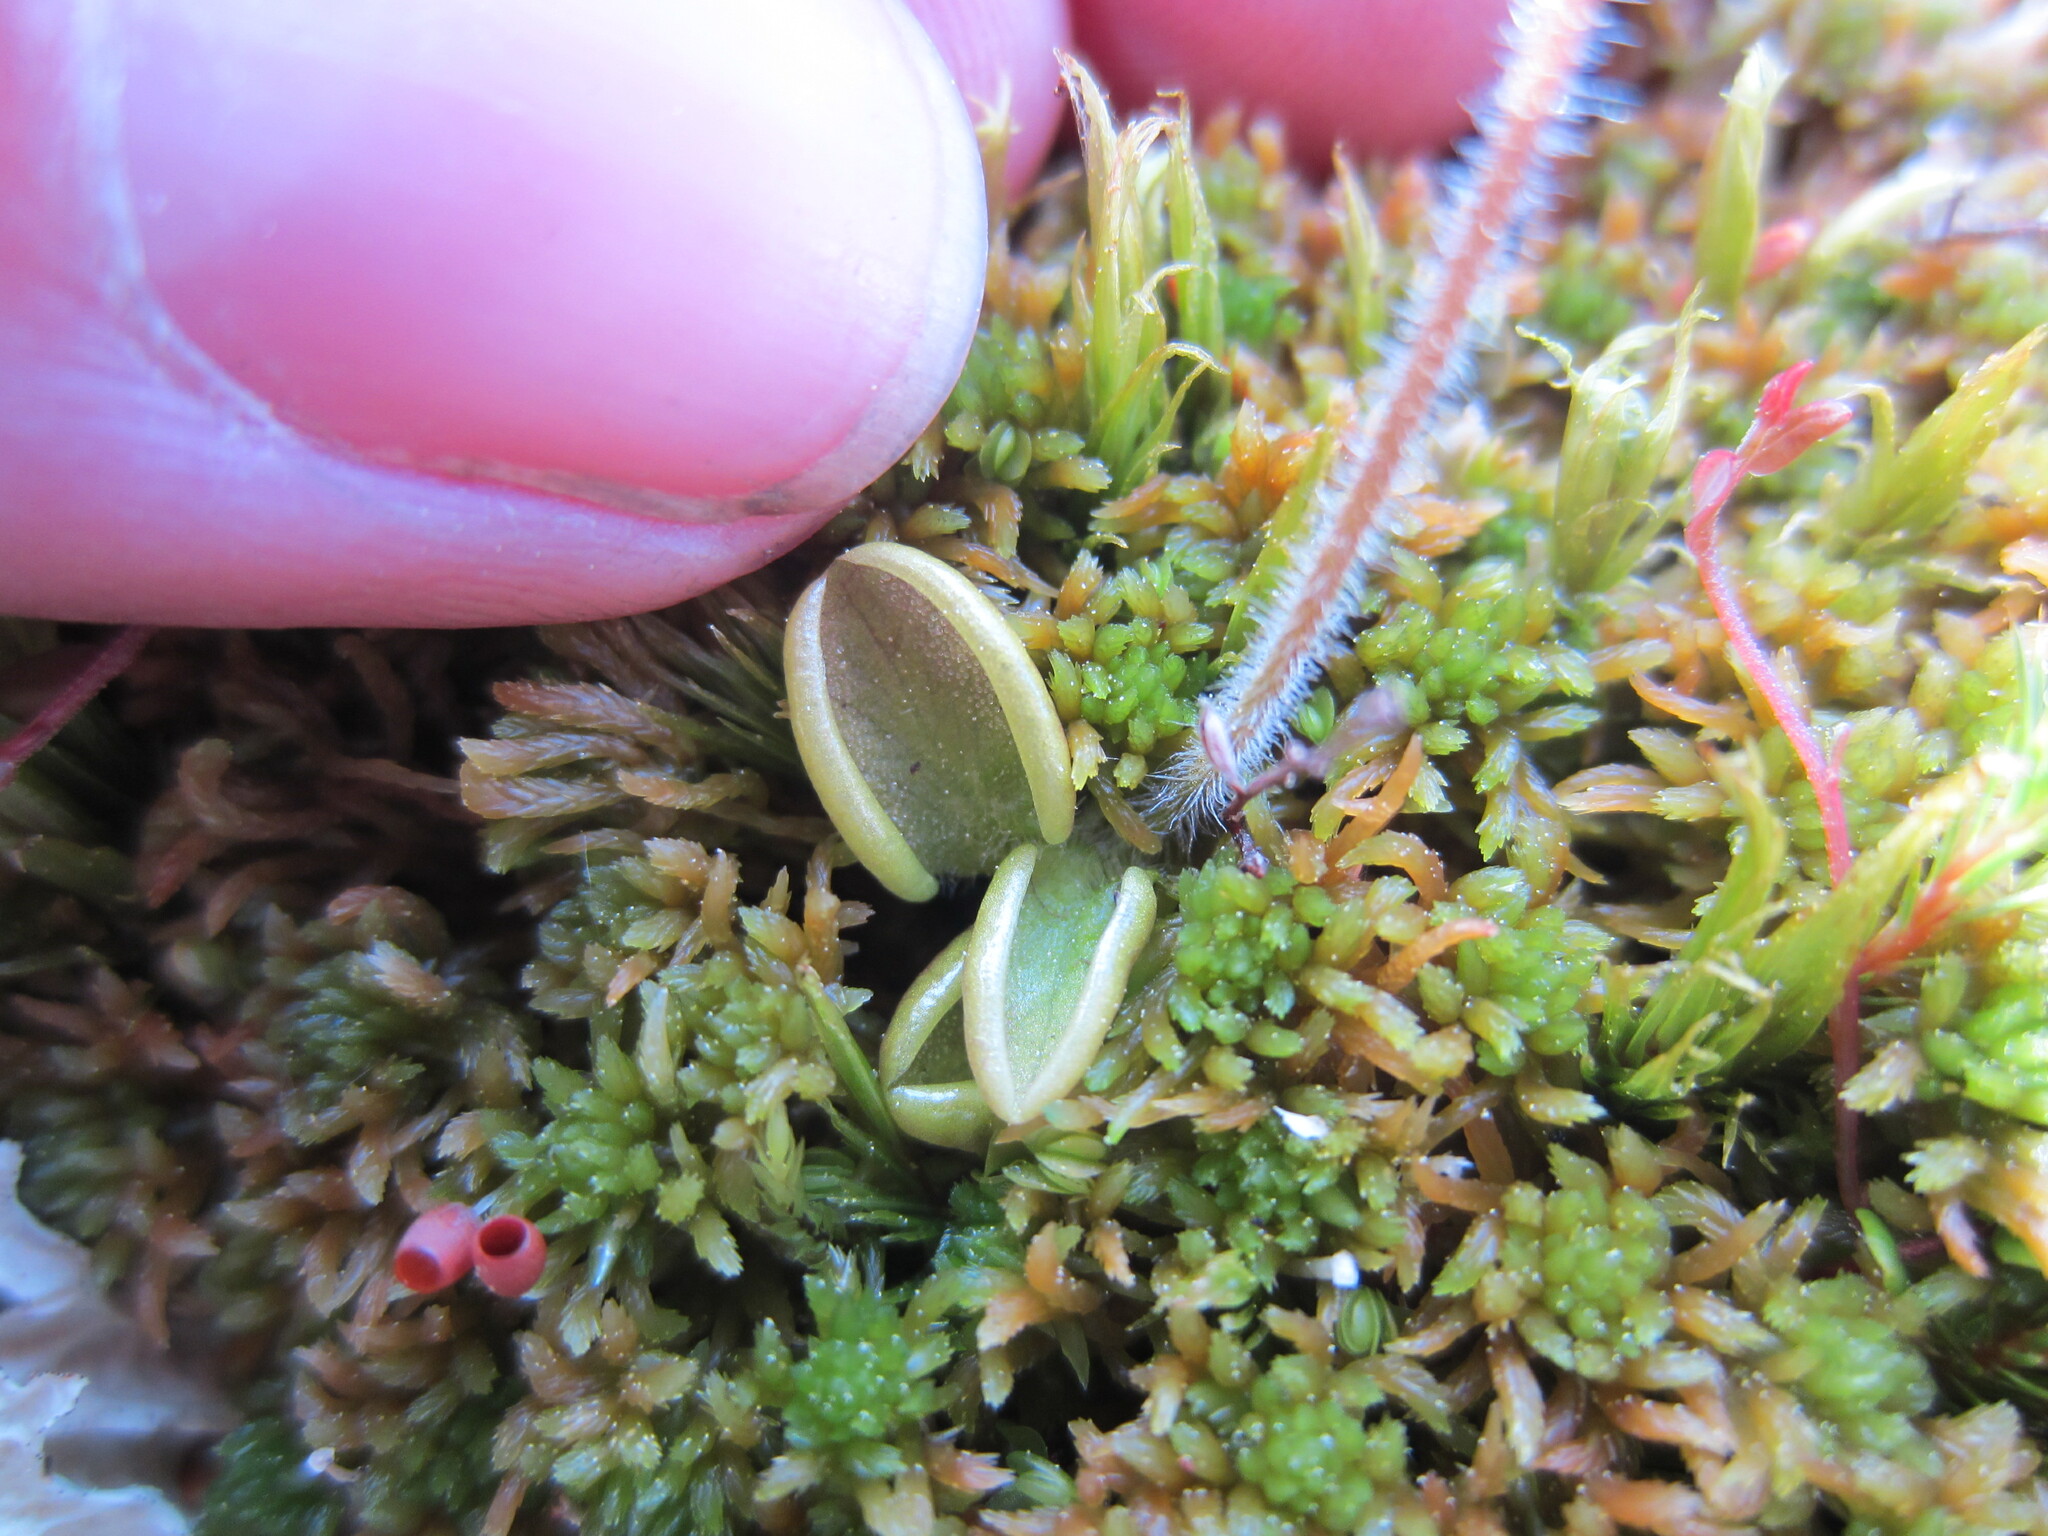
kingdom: Plantae
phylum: Tracheophyta
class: Magnoliopsida
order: Lamiales
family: Lentibulariaceae
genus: Pinguicula
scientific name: Pinguicula villosa
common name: Hairy butterwort
